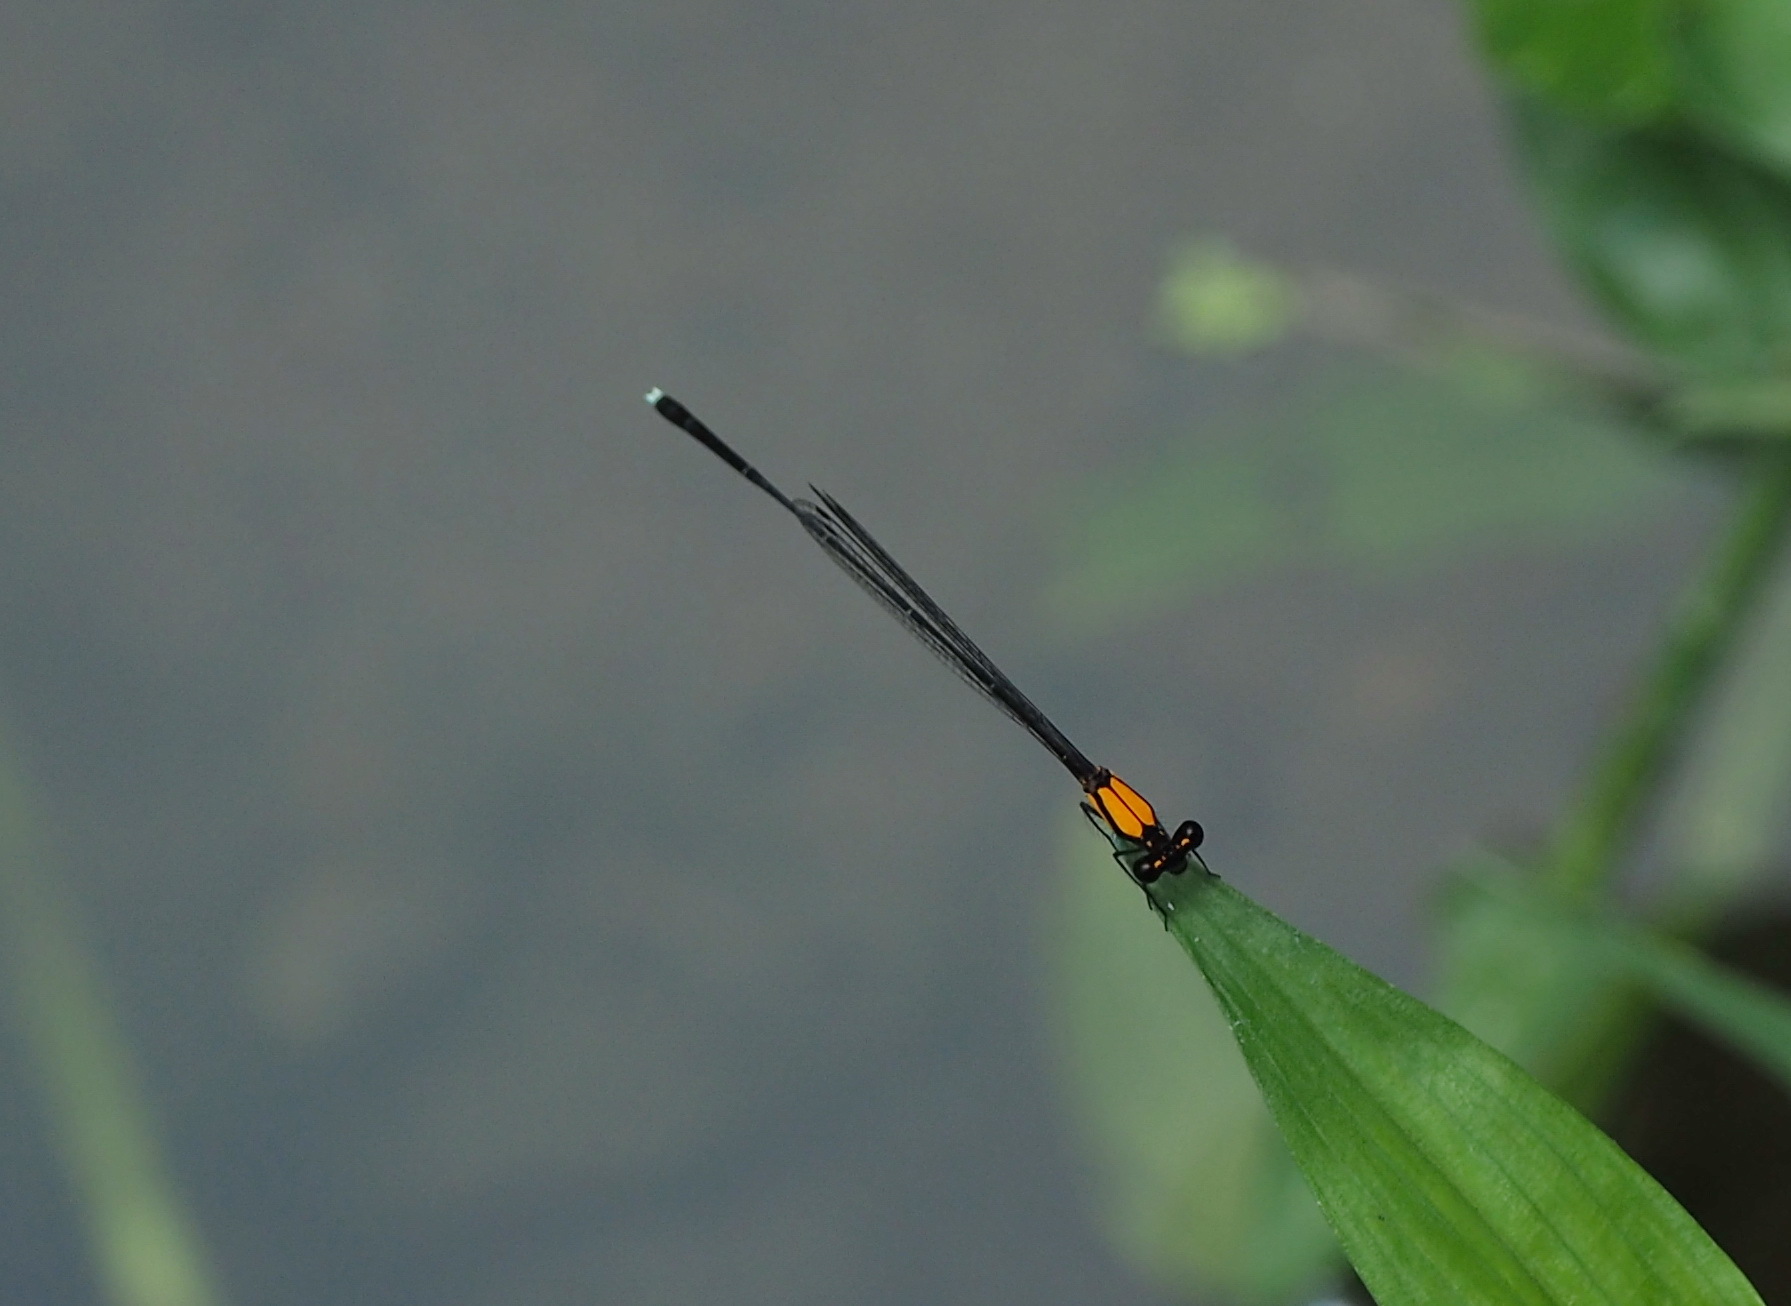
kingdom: Animalia
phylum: Arthropoda
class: Insecta
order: Odonata
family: Platycnemididae
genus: Prodasineura
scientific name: Prodasineura croconota
